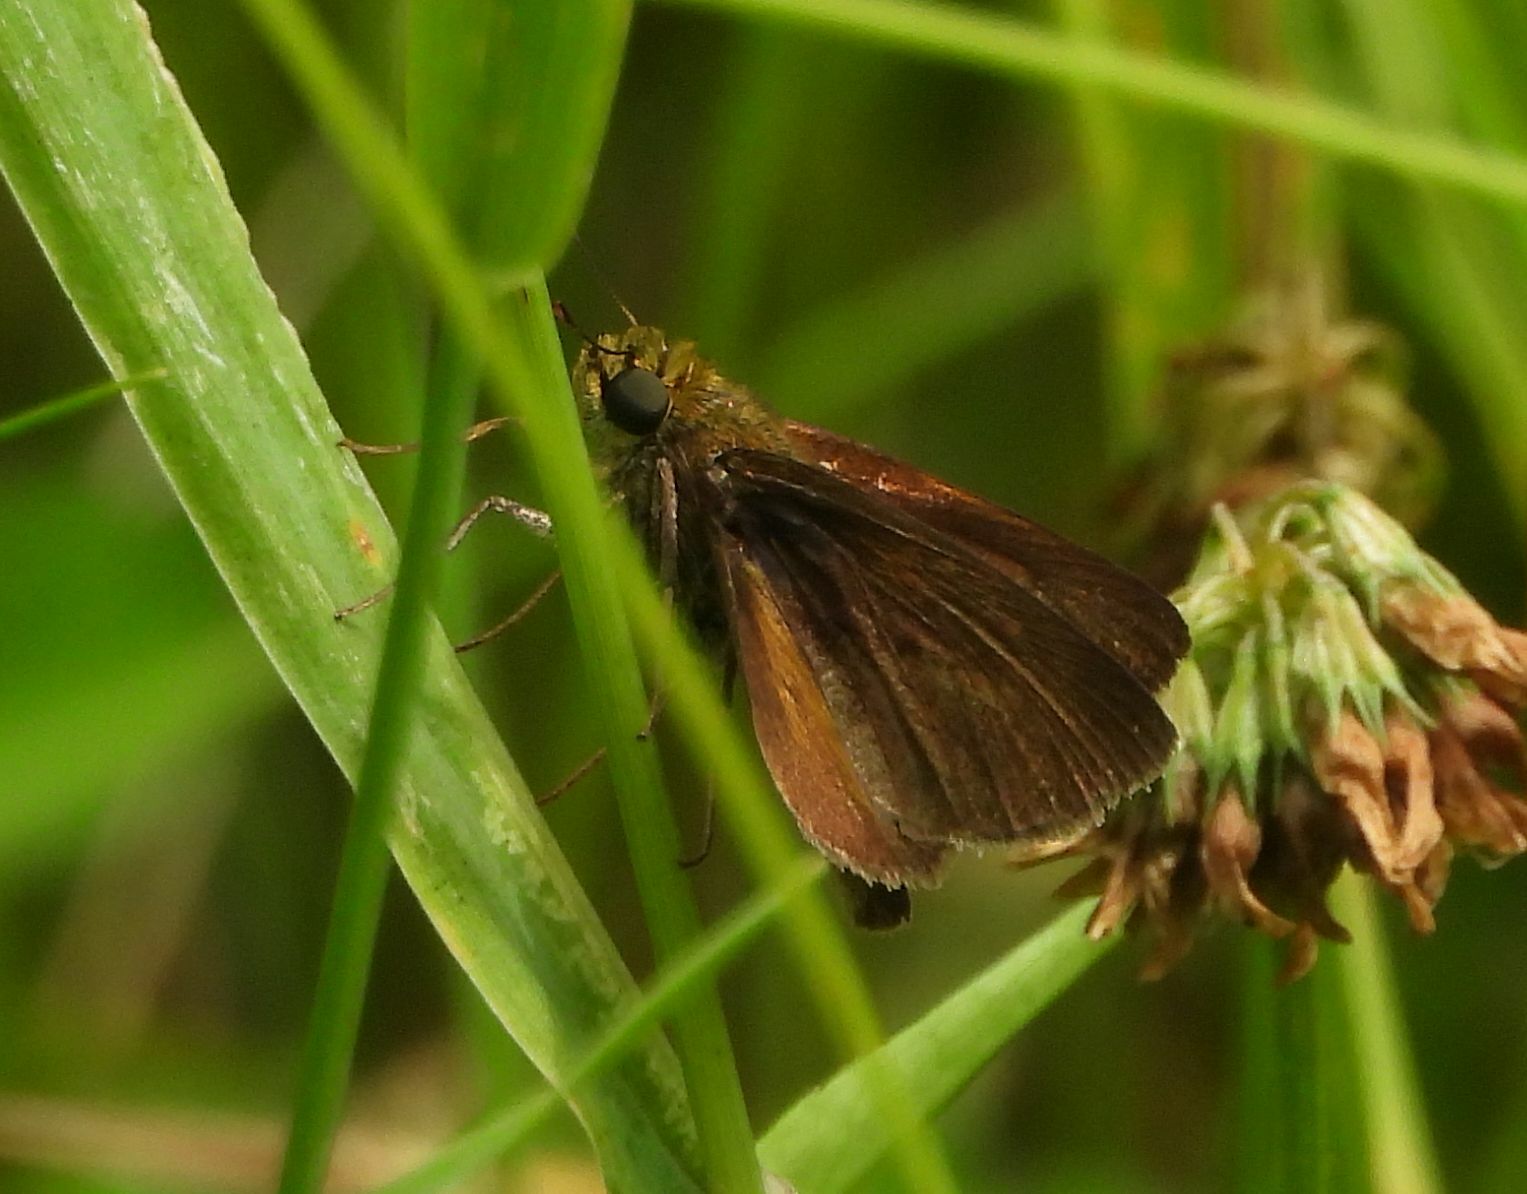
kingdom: Animalia
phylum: Arthropoda
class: Insecta
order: Lepidoptera
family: Hesperiidae
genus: Euphyes
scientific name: Euphyes vestris
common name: Dun skipper
